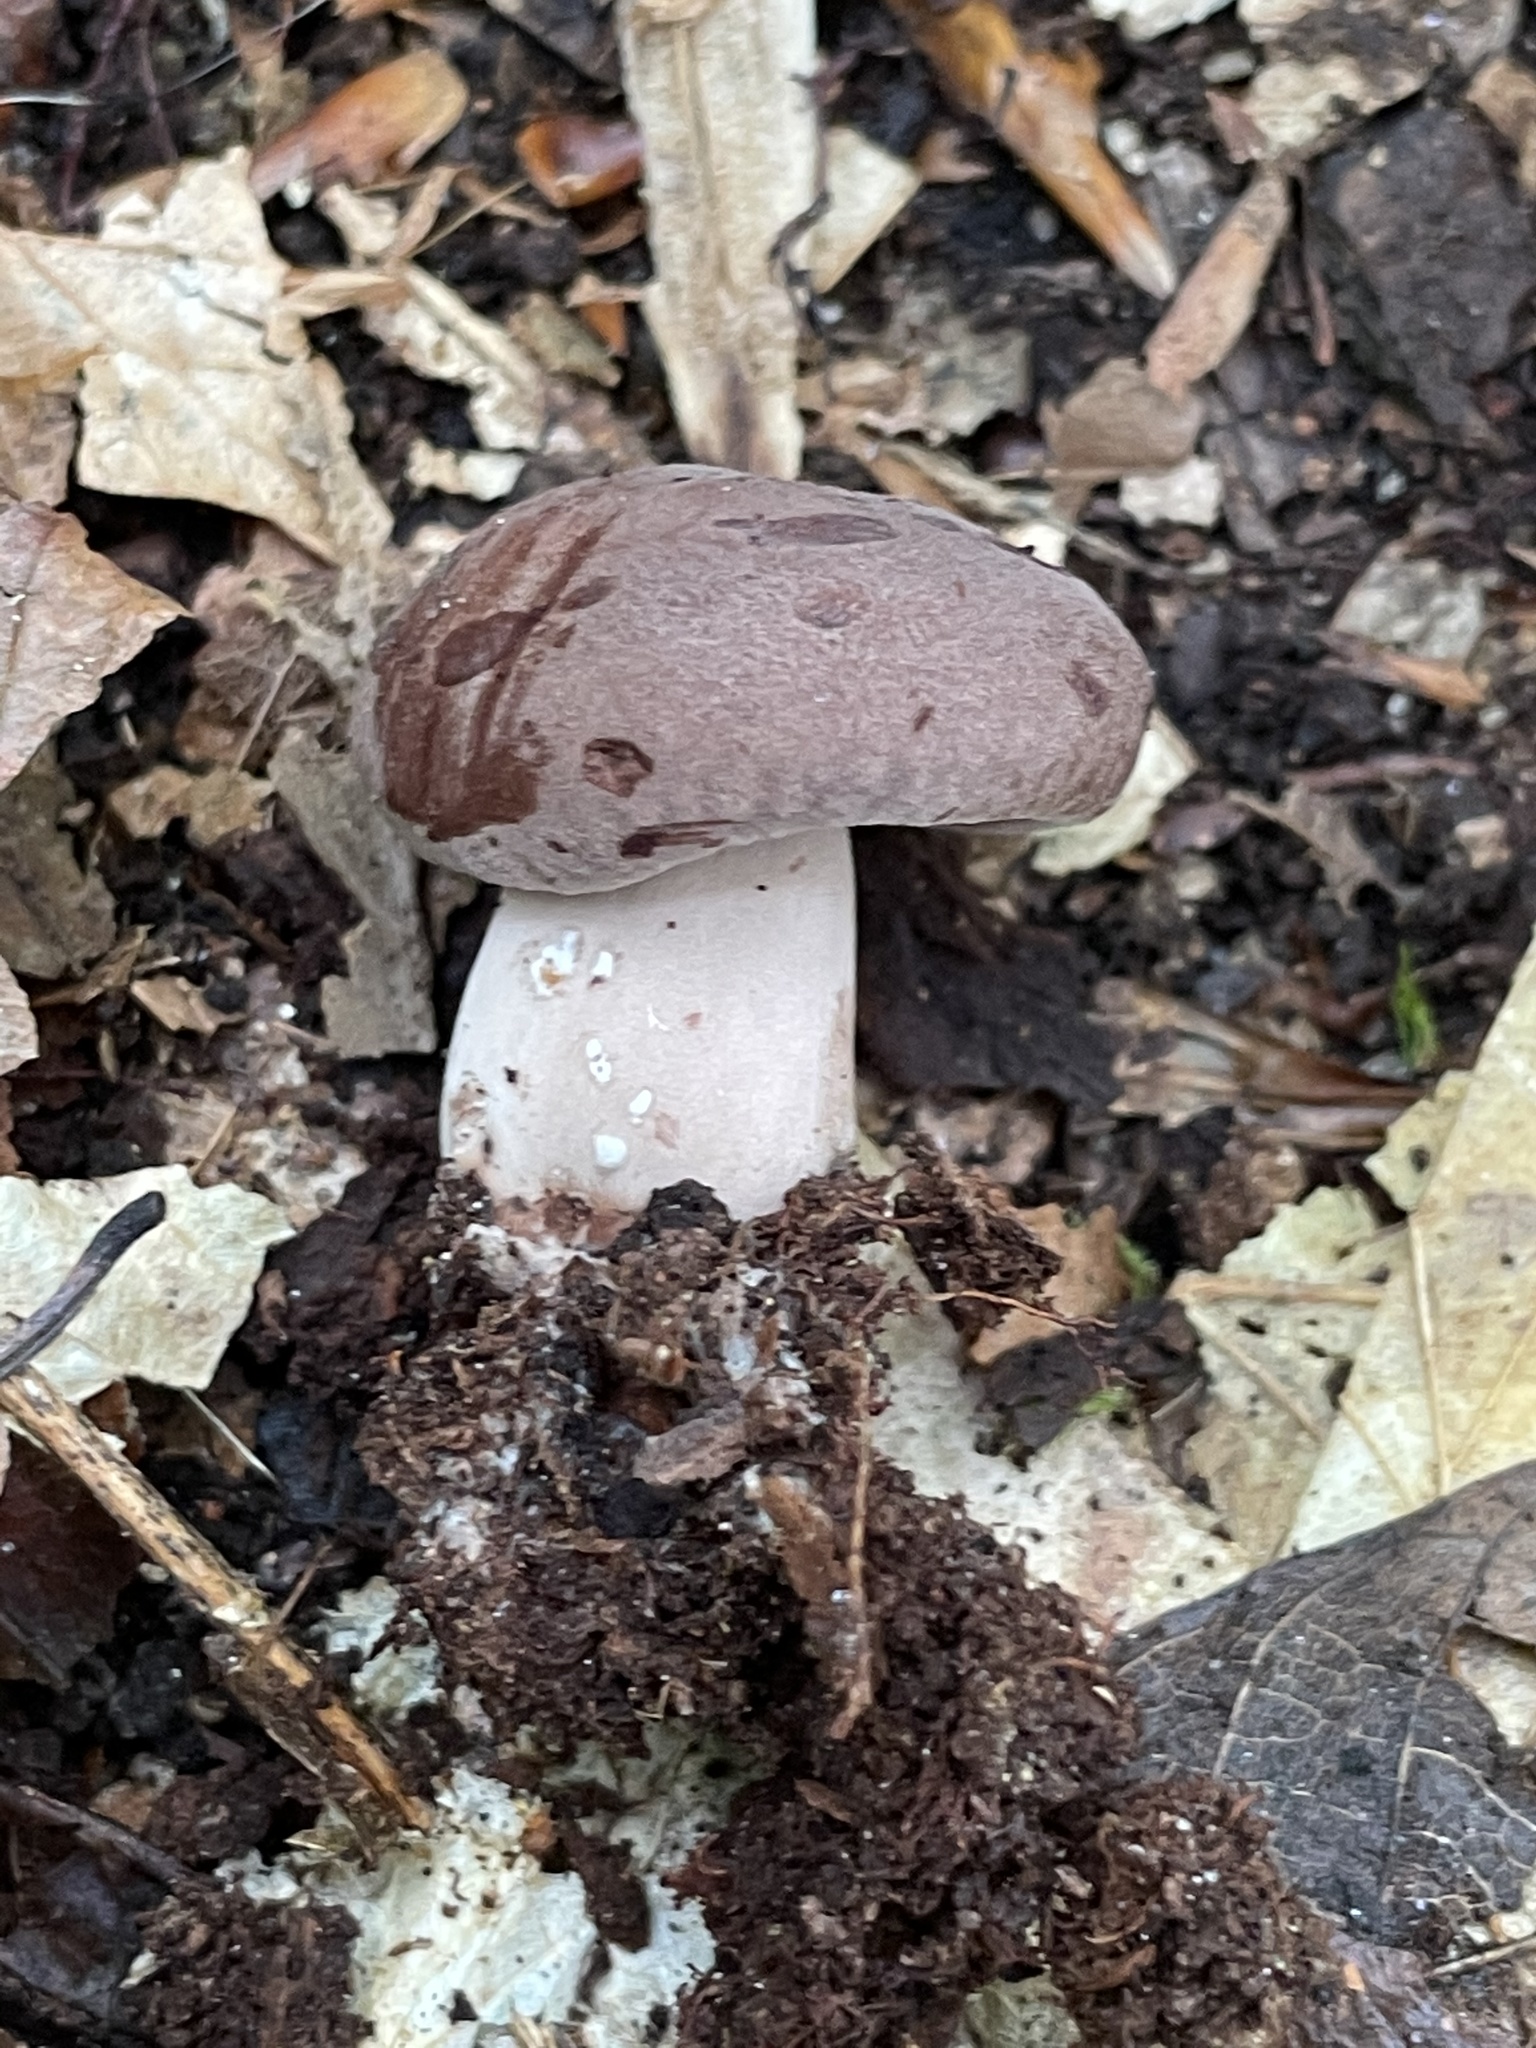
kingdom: Fungi
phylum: Basidiomycota
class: Agaricomycetes
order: Russulales
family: Russulaceae
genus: Lactarius
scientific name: Lactarius helvus
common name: Fenugreek milkcap
